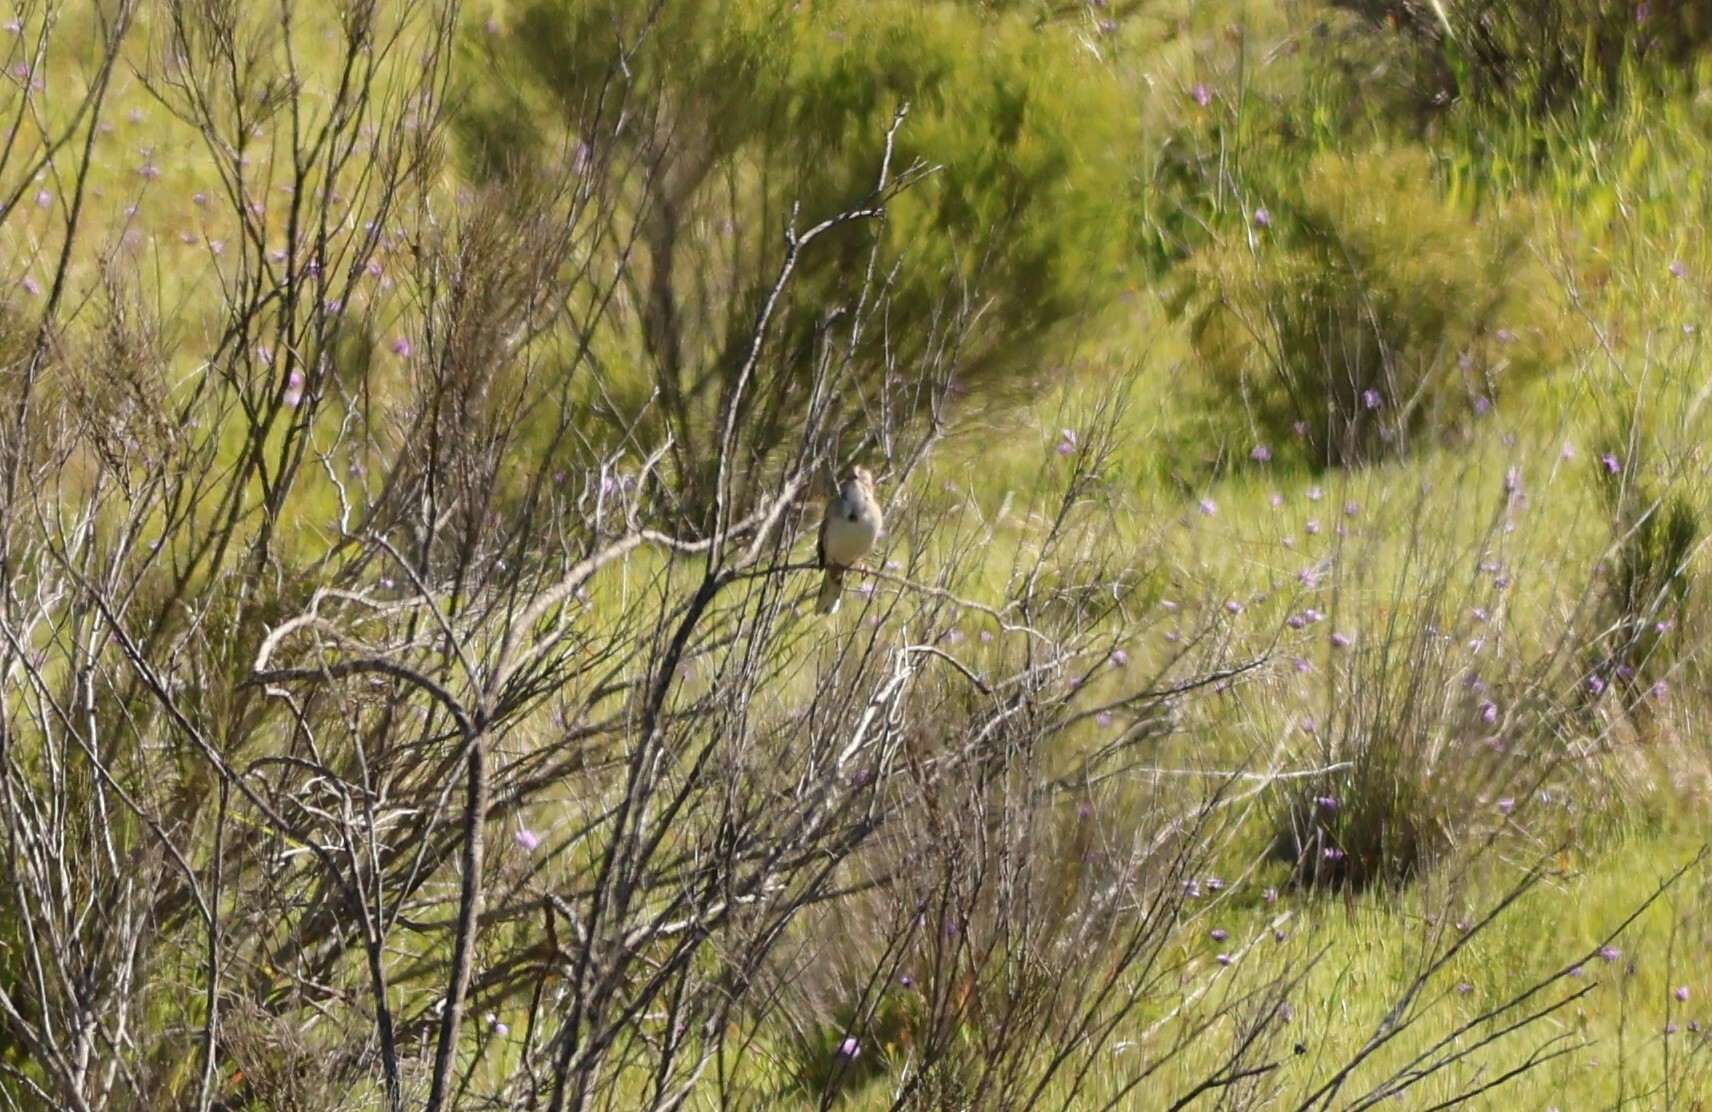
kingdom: Animalia
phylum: Chordata
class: Aves
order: Passeriformes
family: Passerellidae
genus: Chondestes
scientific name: Chondestes grammacus
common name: Lark sparrow
